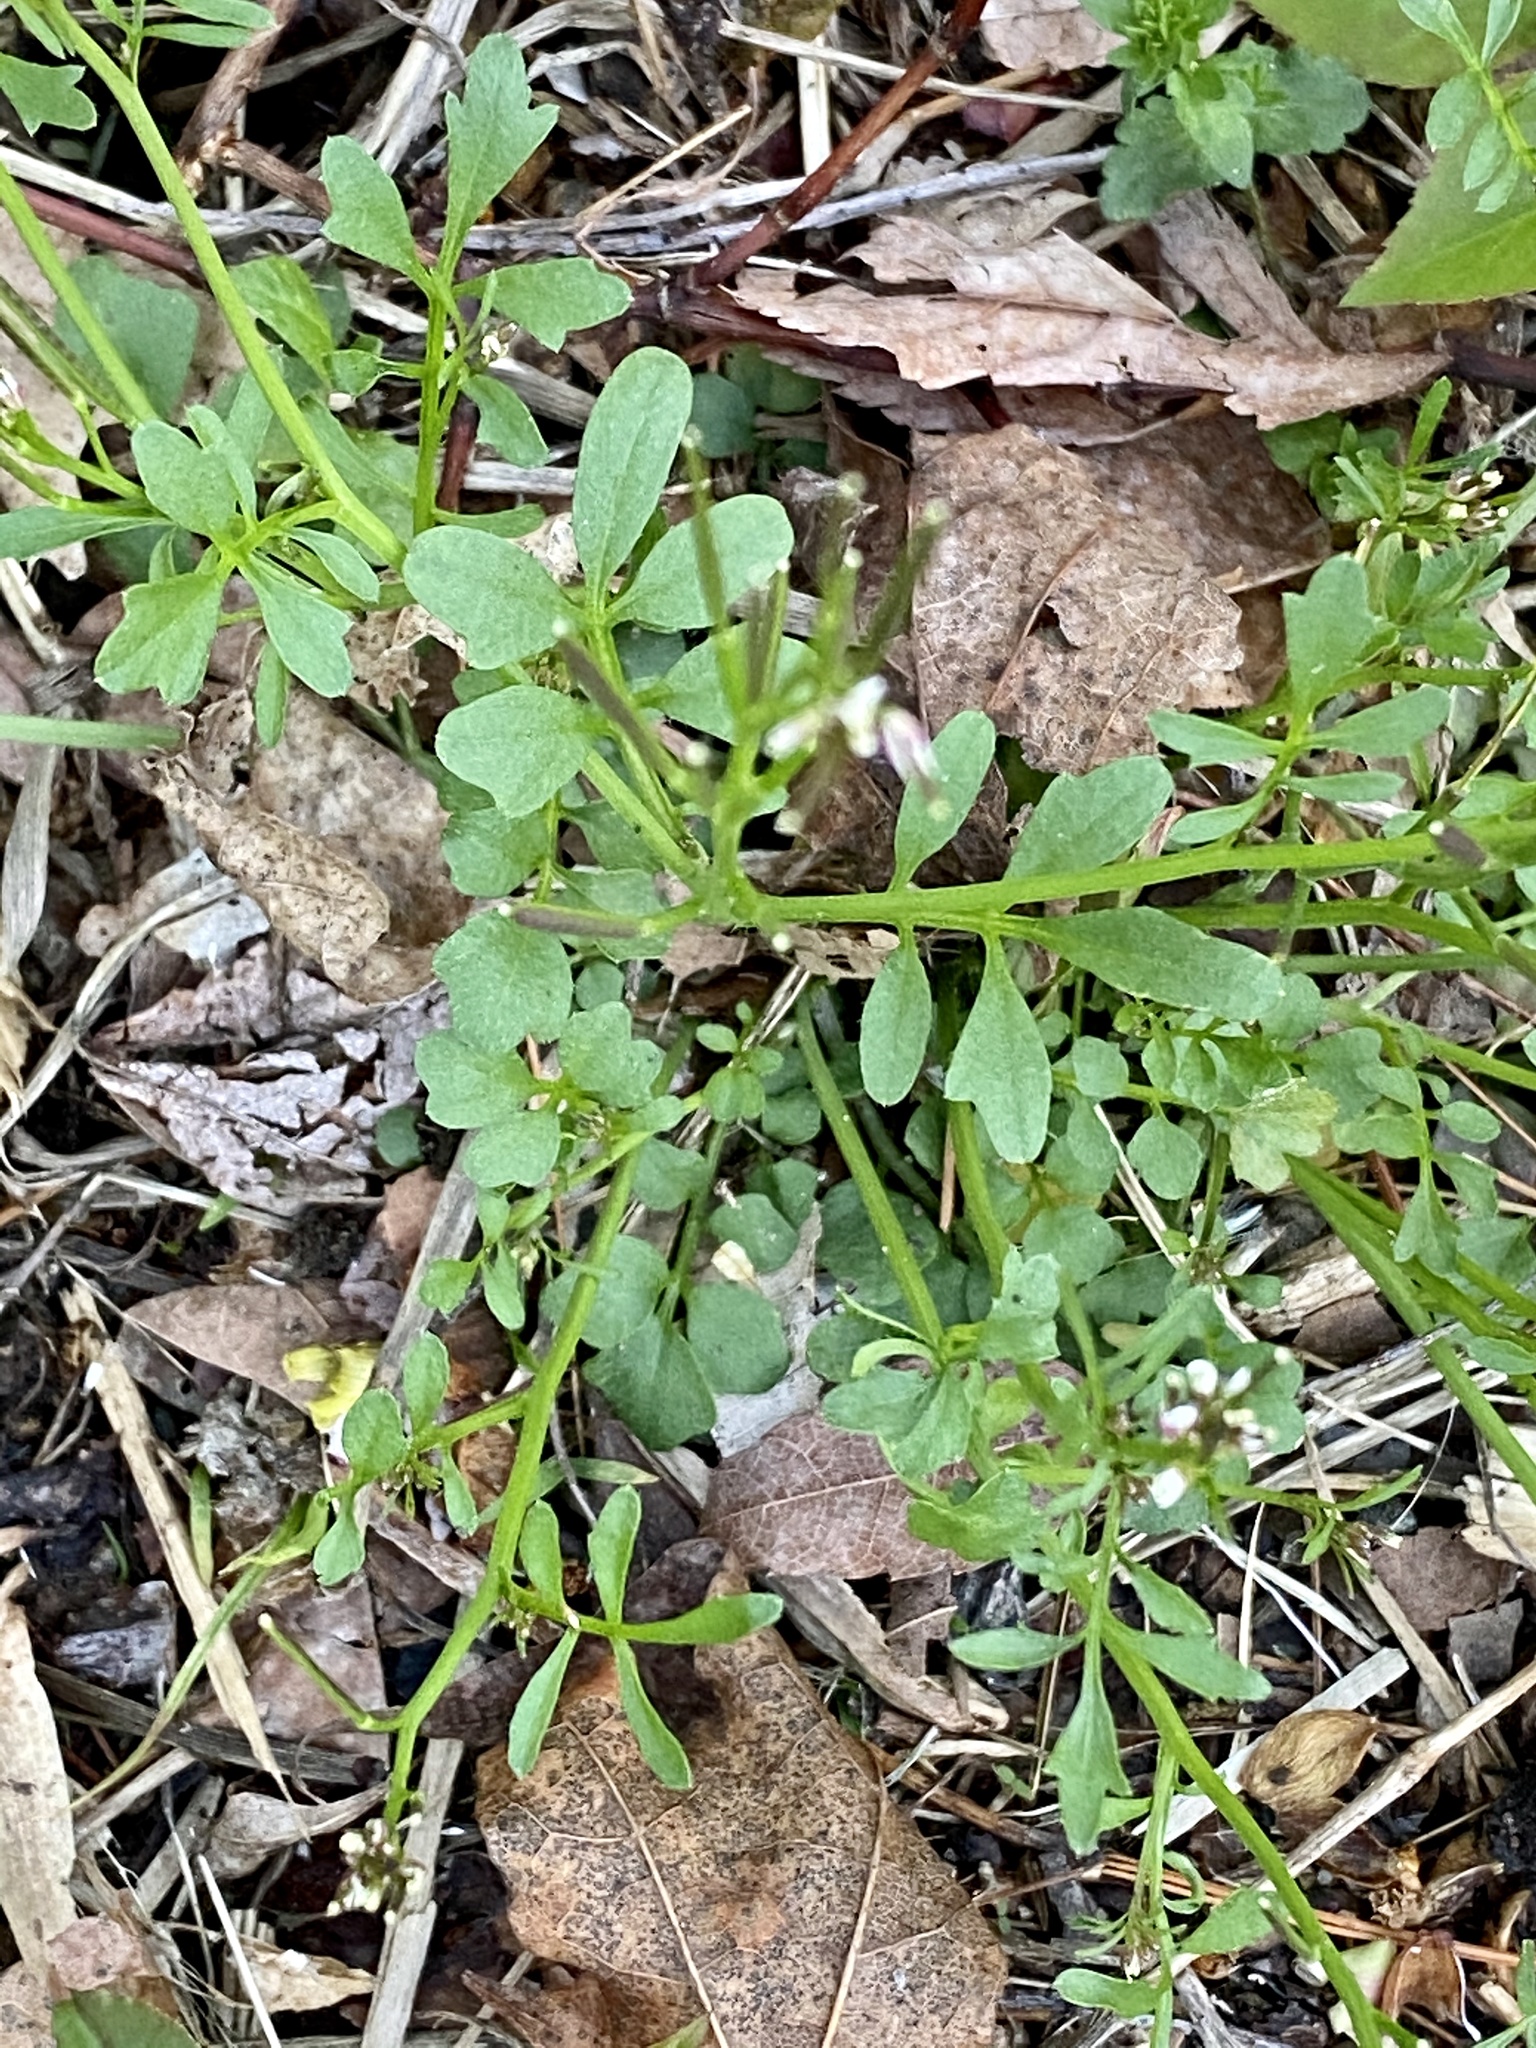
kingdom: Plantae
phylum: Tracheophyta
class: Magnoliopsida
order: Brassicales
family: Brassicaceae
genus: Cardamine
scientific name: Cardamine hirsuta
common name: Hairy bittercress
